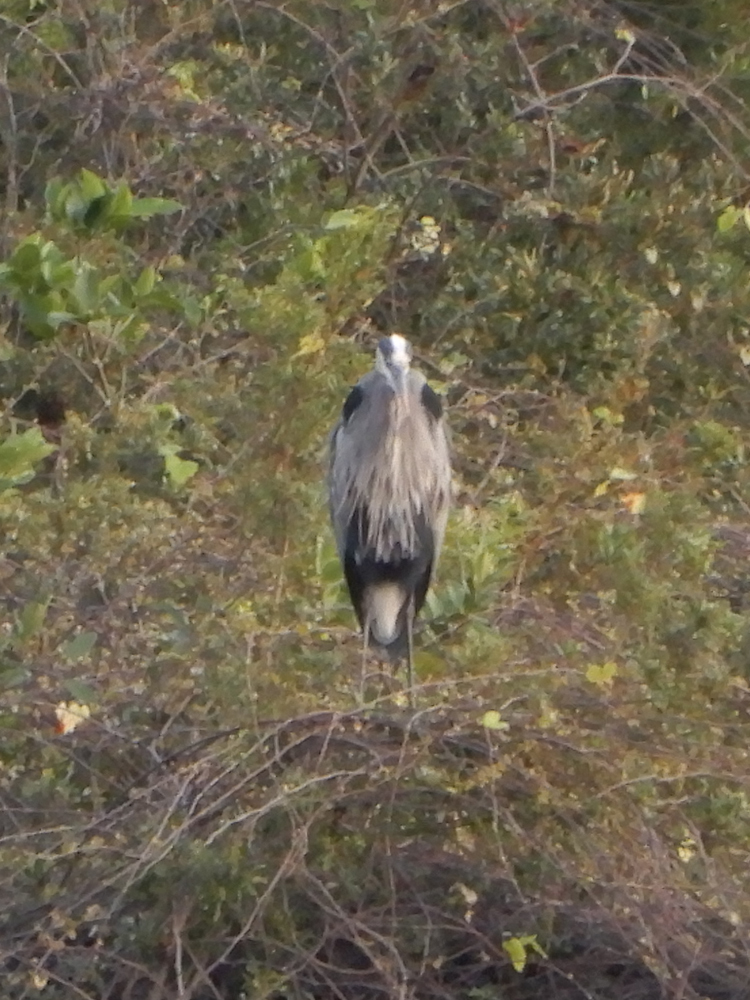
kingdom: Animalia
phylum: Chordata
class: Aves
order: Pelecaniformes
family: Ardeidae
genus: Ardea
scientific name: Ardea herodias
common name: Great blue heron
